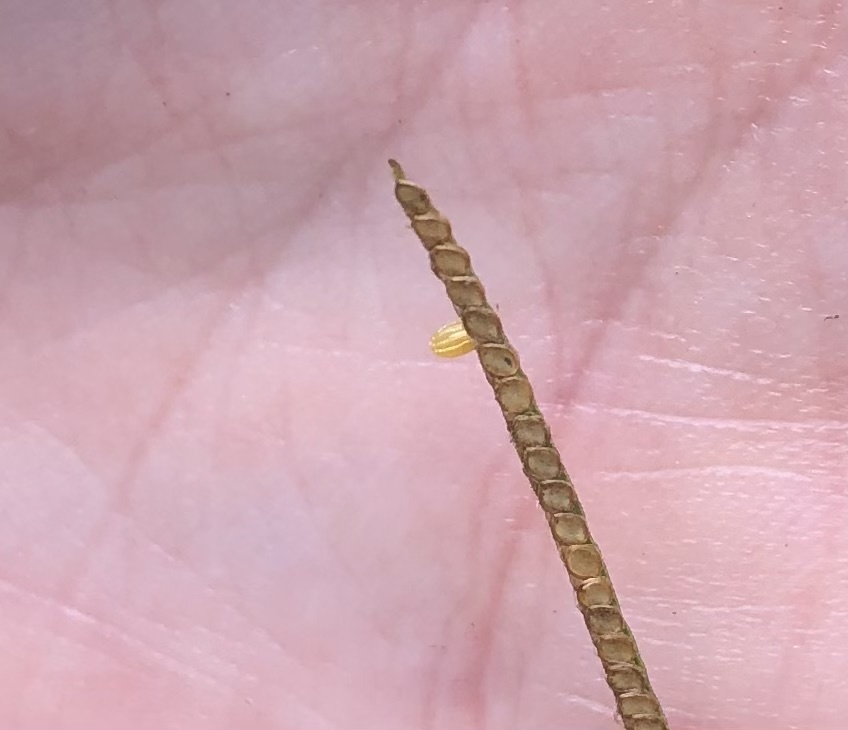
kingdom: Animalia
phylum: Arthropoda
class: Insecta
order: Lepidoptera
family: Nymphalidae
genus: Dione
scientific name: Dione vanillae
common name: Gulf fritillary
